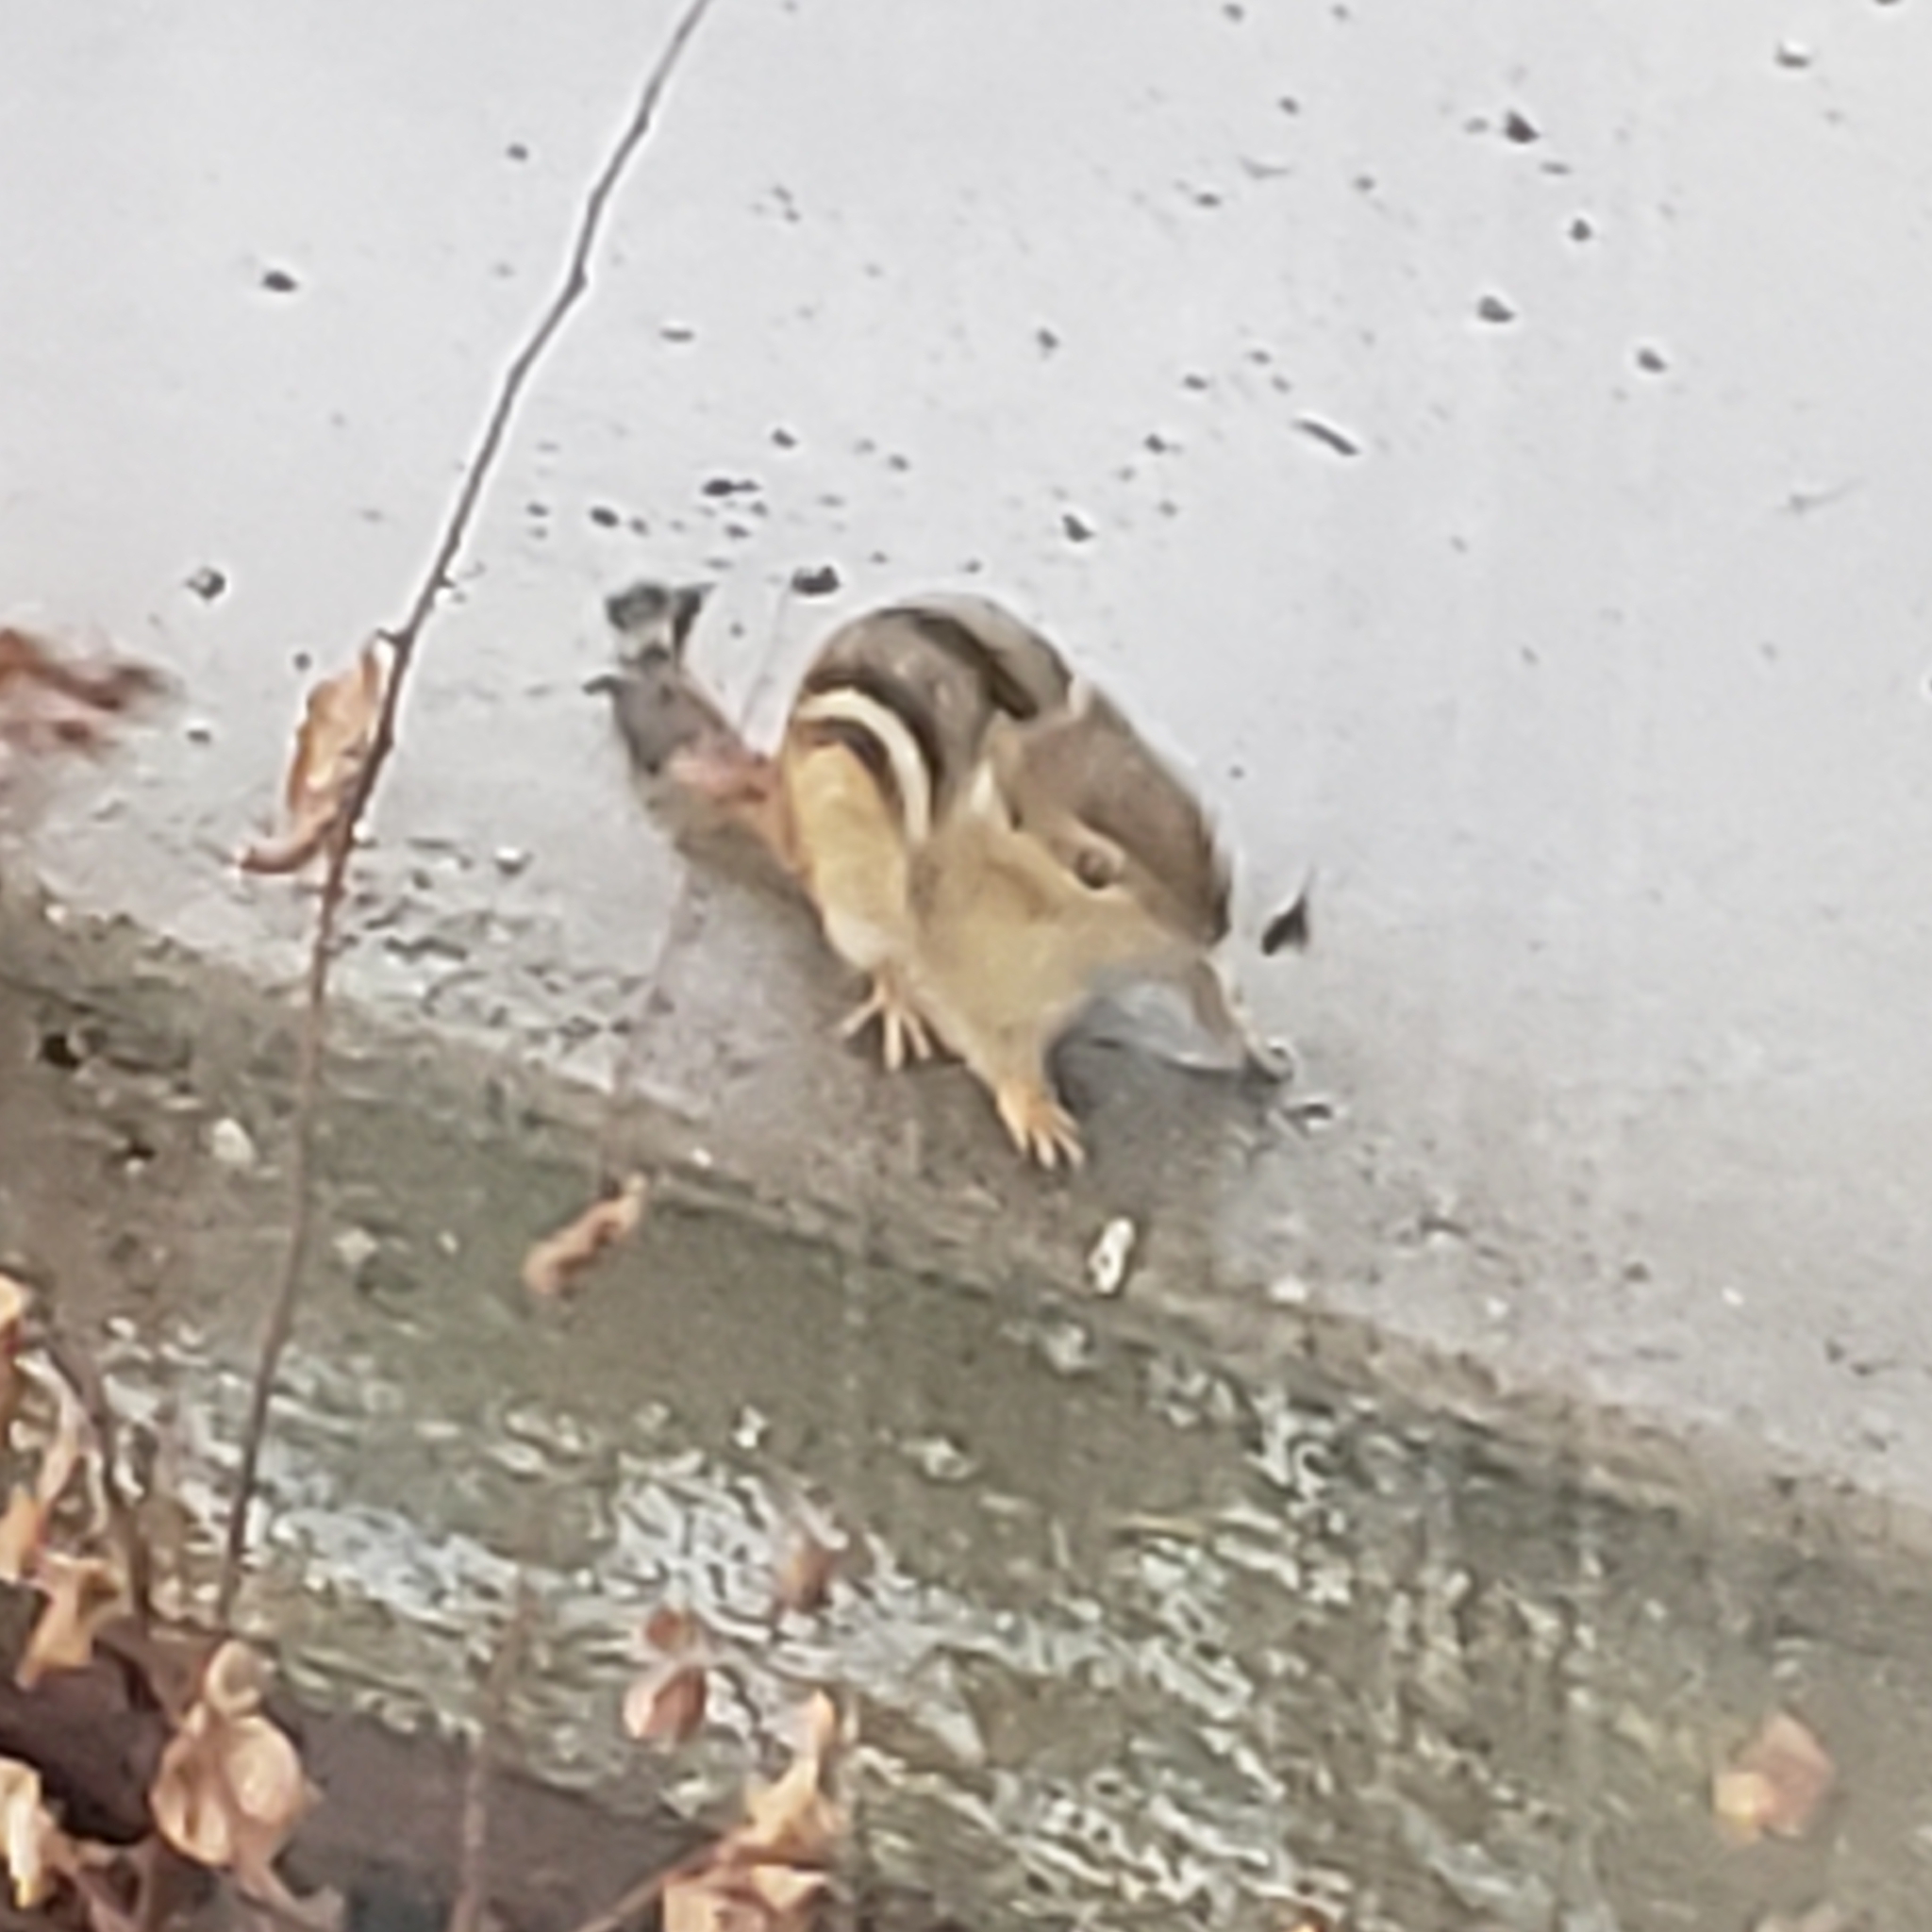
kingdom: Animalia
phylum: Chordata
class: Mammalia
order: Rodentia
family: Sciuridae
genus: Tamias
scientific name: Tamias striatus
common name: Eastern chipmunk
